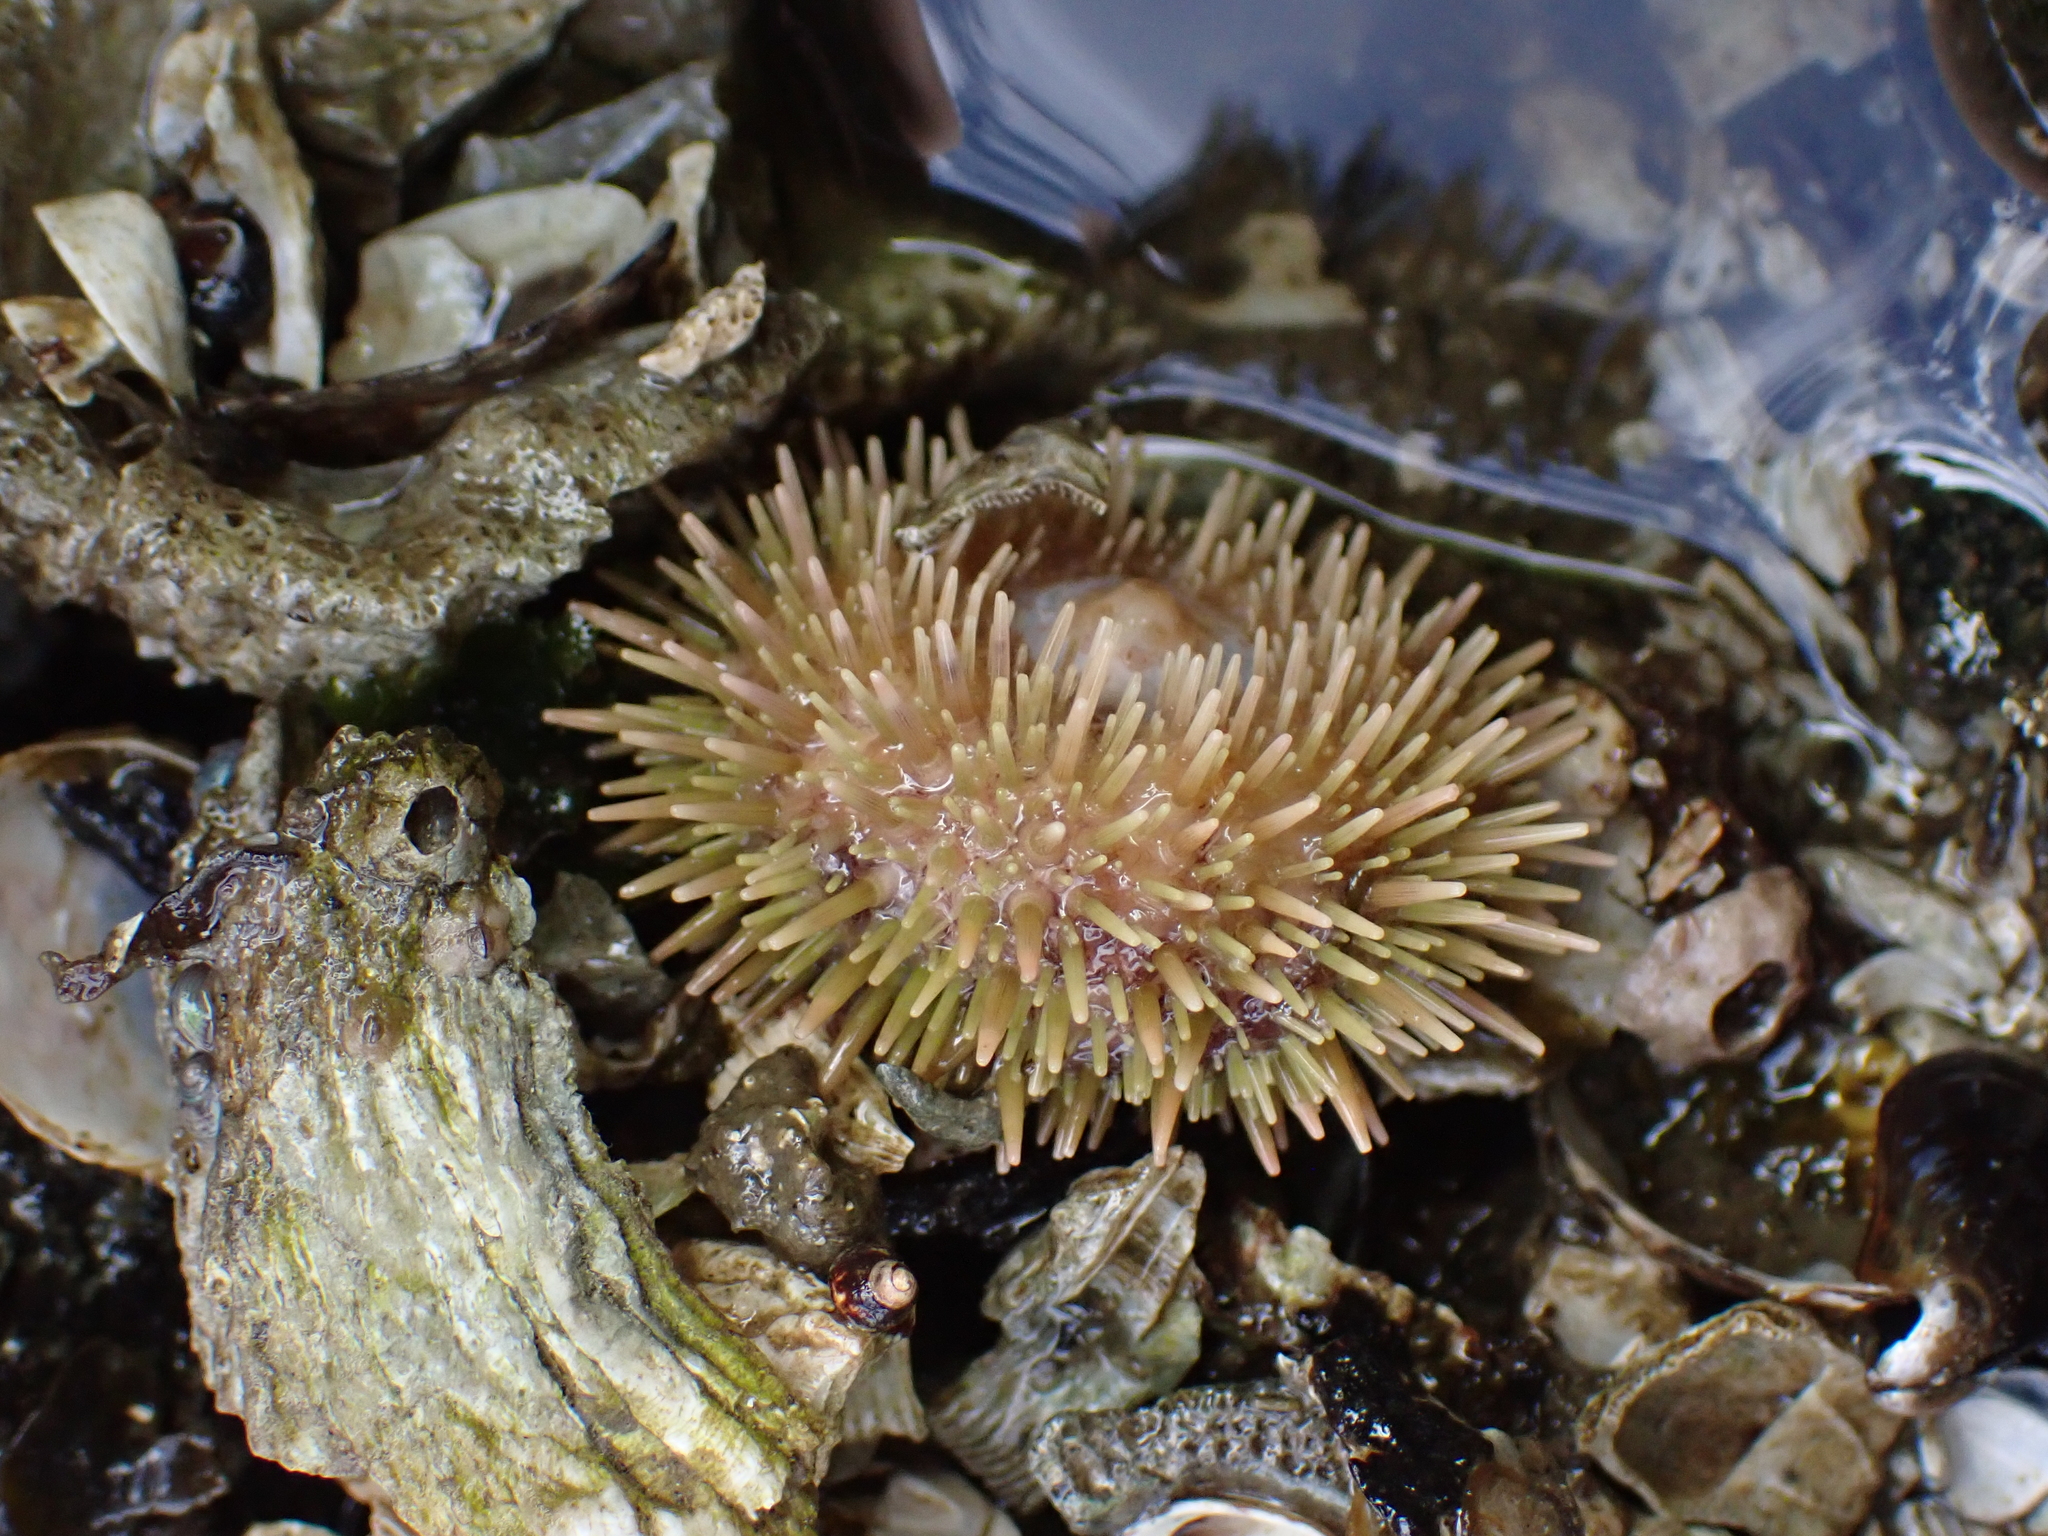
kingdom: Animalia
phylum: Echinodermata
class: Echinoidea
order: Camarodonta
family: Strongylocentrotidae
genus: Strongylocentrotus
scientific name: Strongylocentrotus droebachiensis
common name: Northern sea urchin
